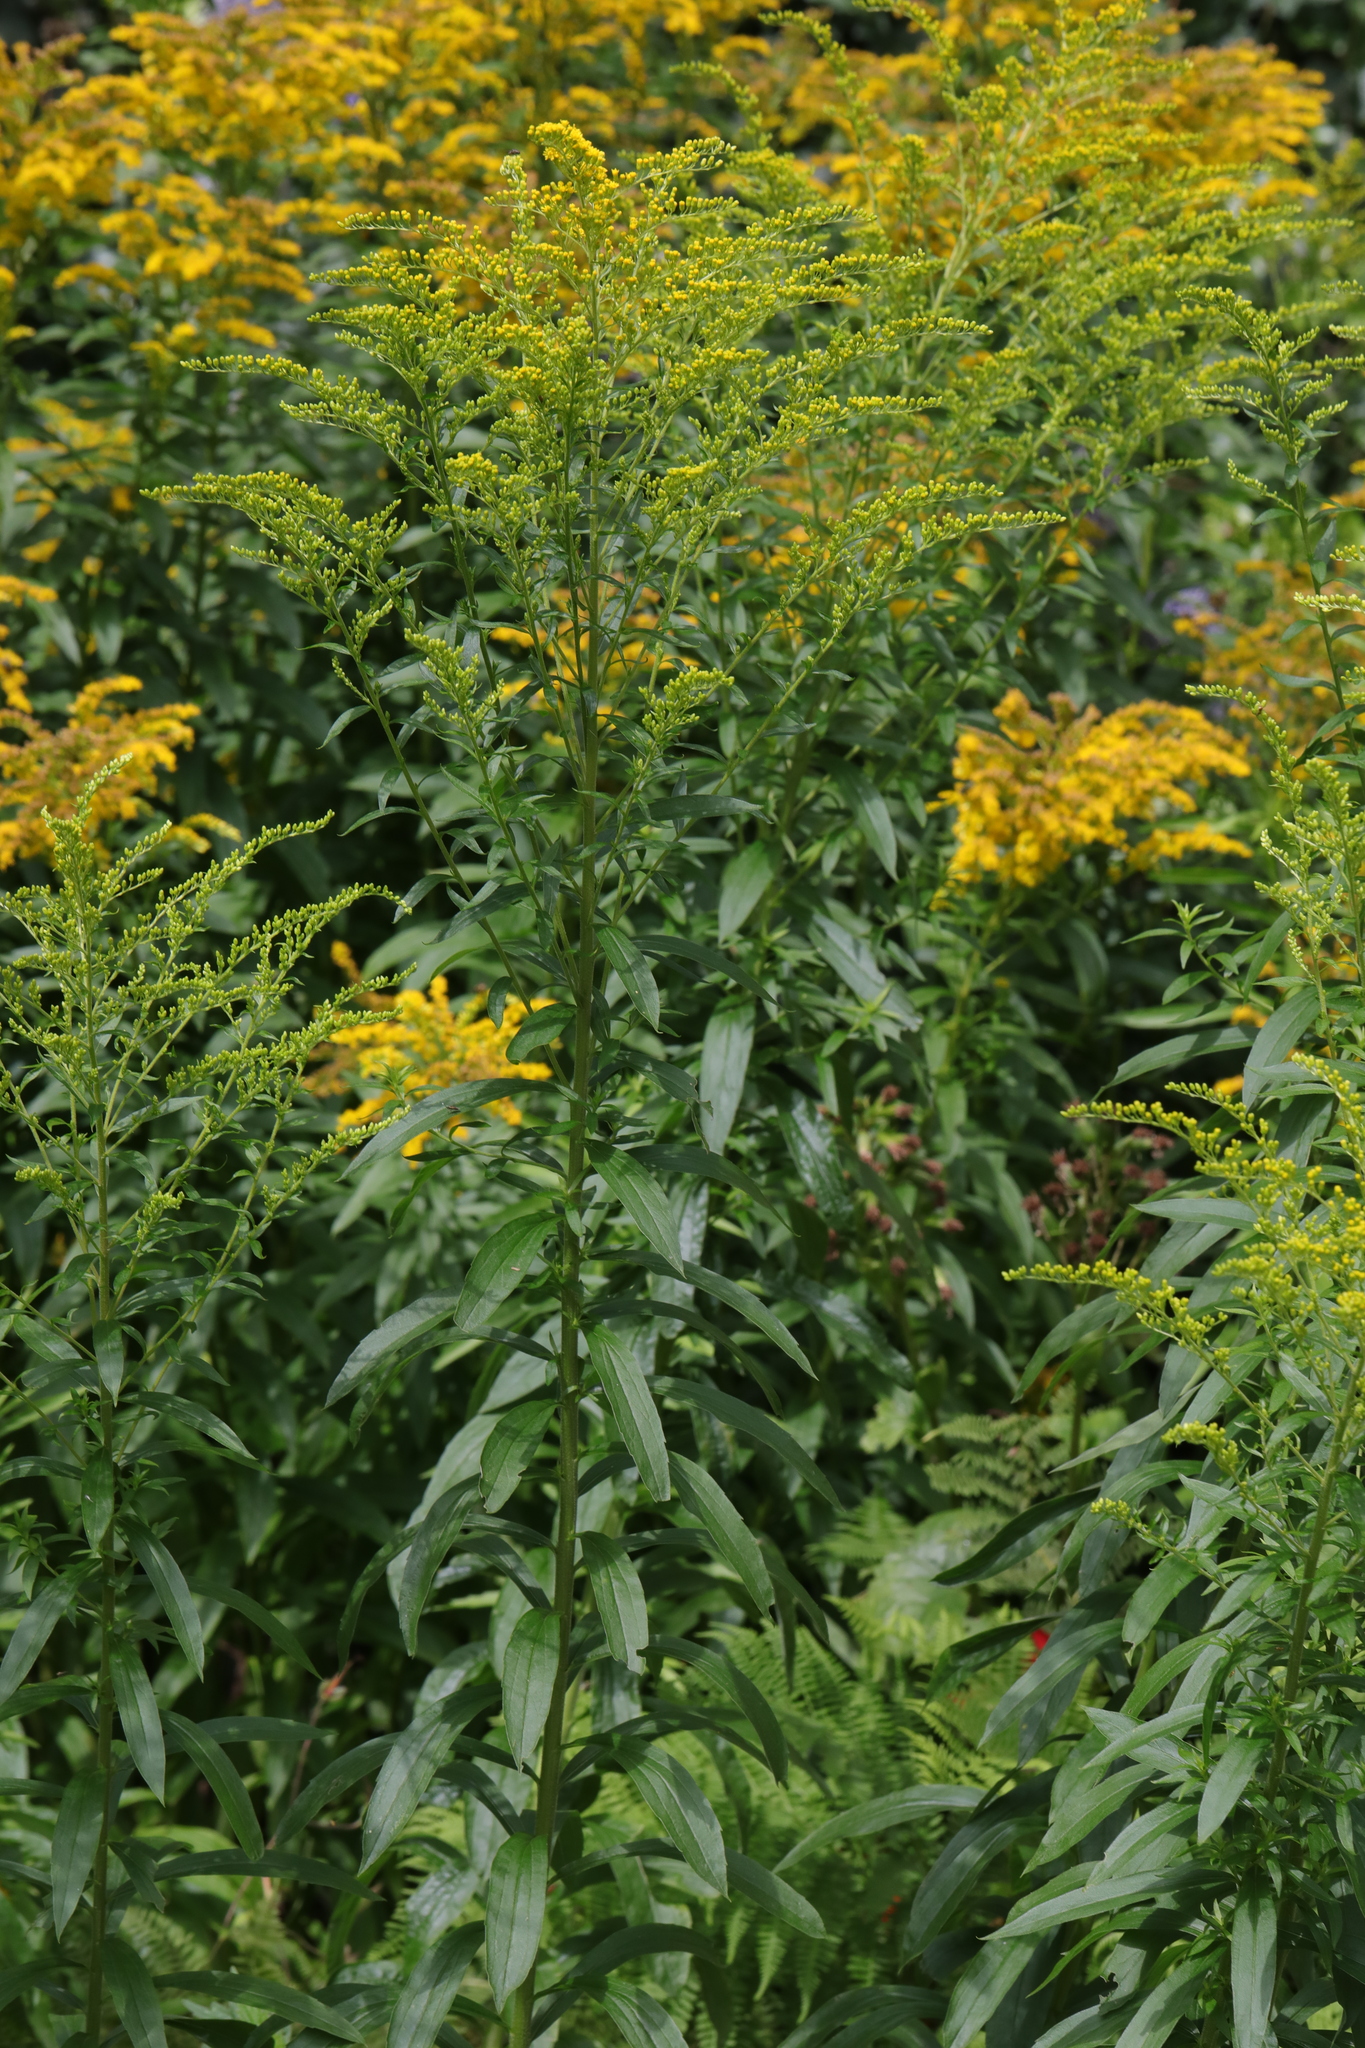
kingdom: Plantae
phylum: Tracheophyta
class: Magnoliopsida
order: Asterales
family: Asteraceae
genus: Solidago
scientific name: Solidago canadensis
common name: Canada goldenrod
